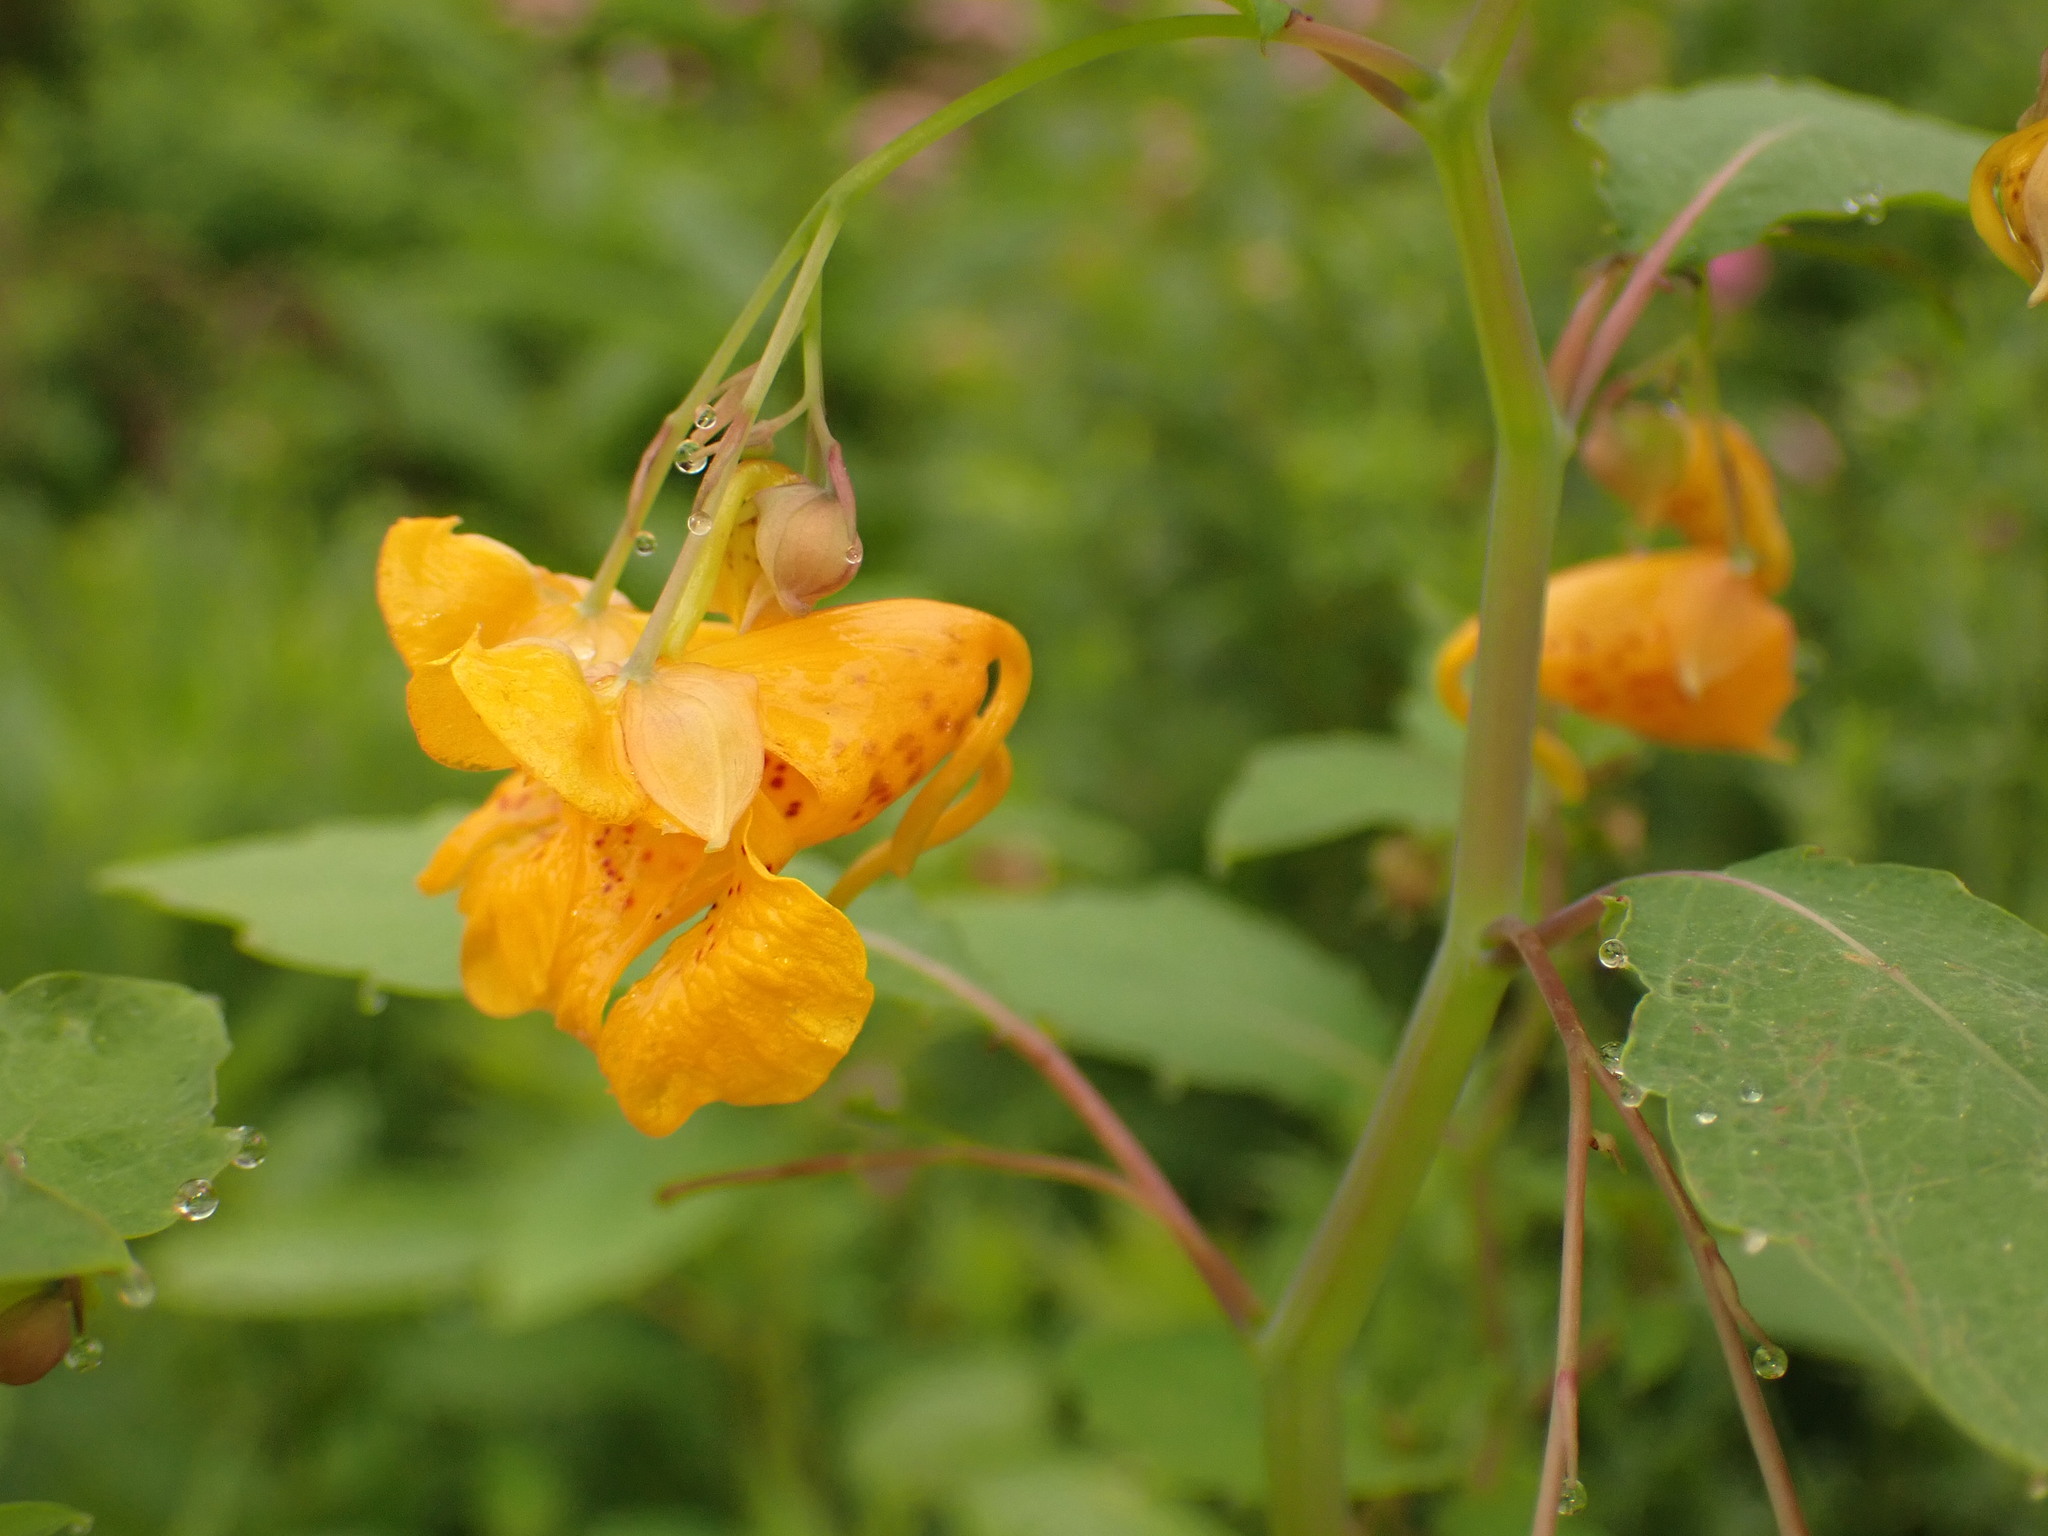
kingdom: Plantae
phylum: Tracheophyta
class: Magnoliopsida
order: Ericales
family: Balsaminaceae
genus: Impatiens
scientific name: Impatiens capensis
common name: Orange balsam
